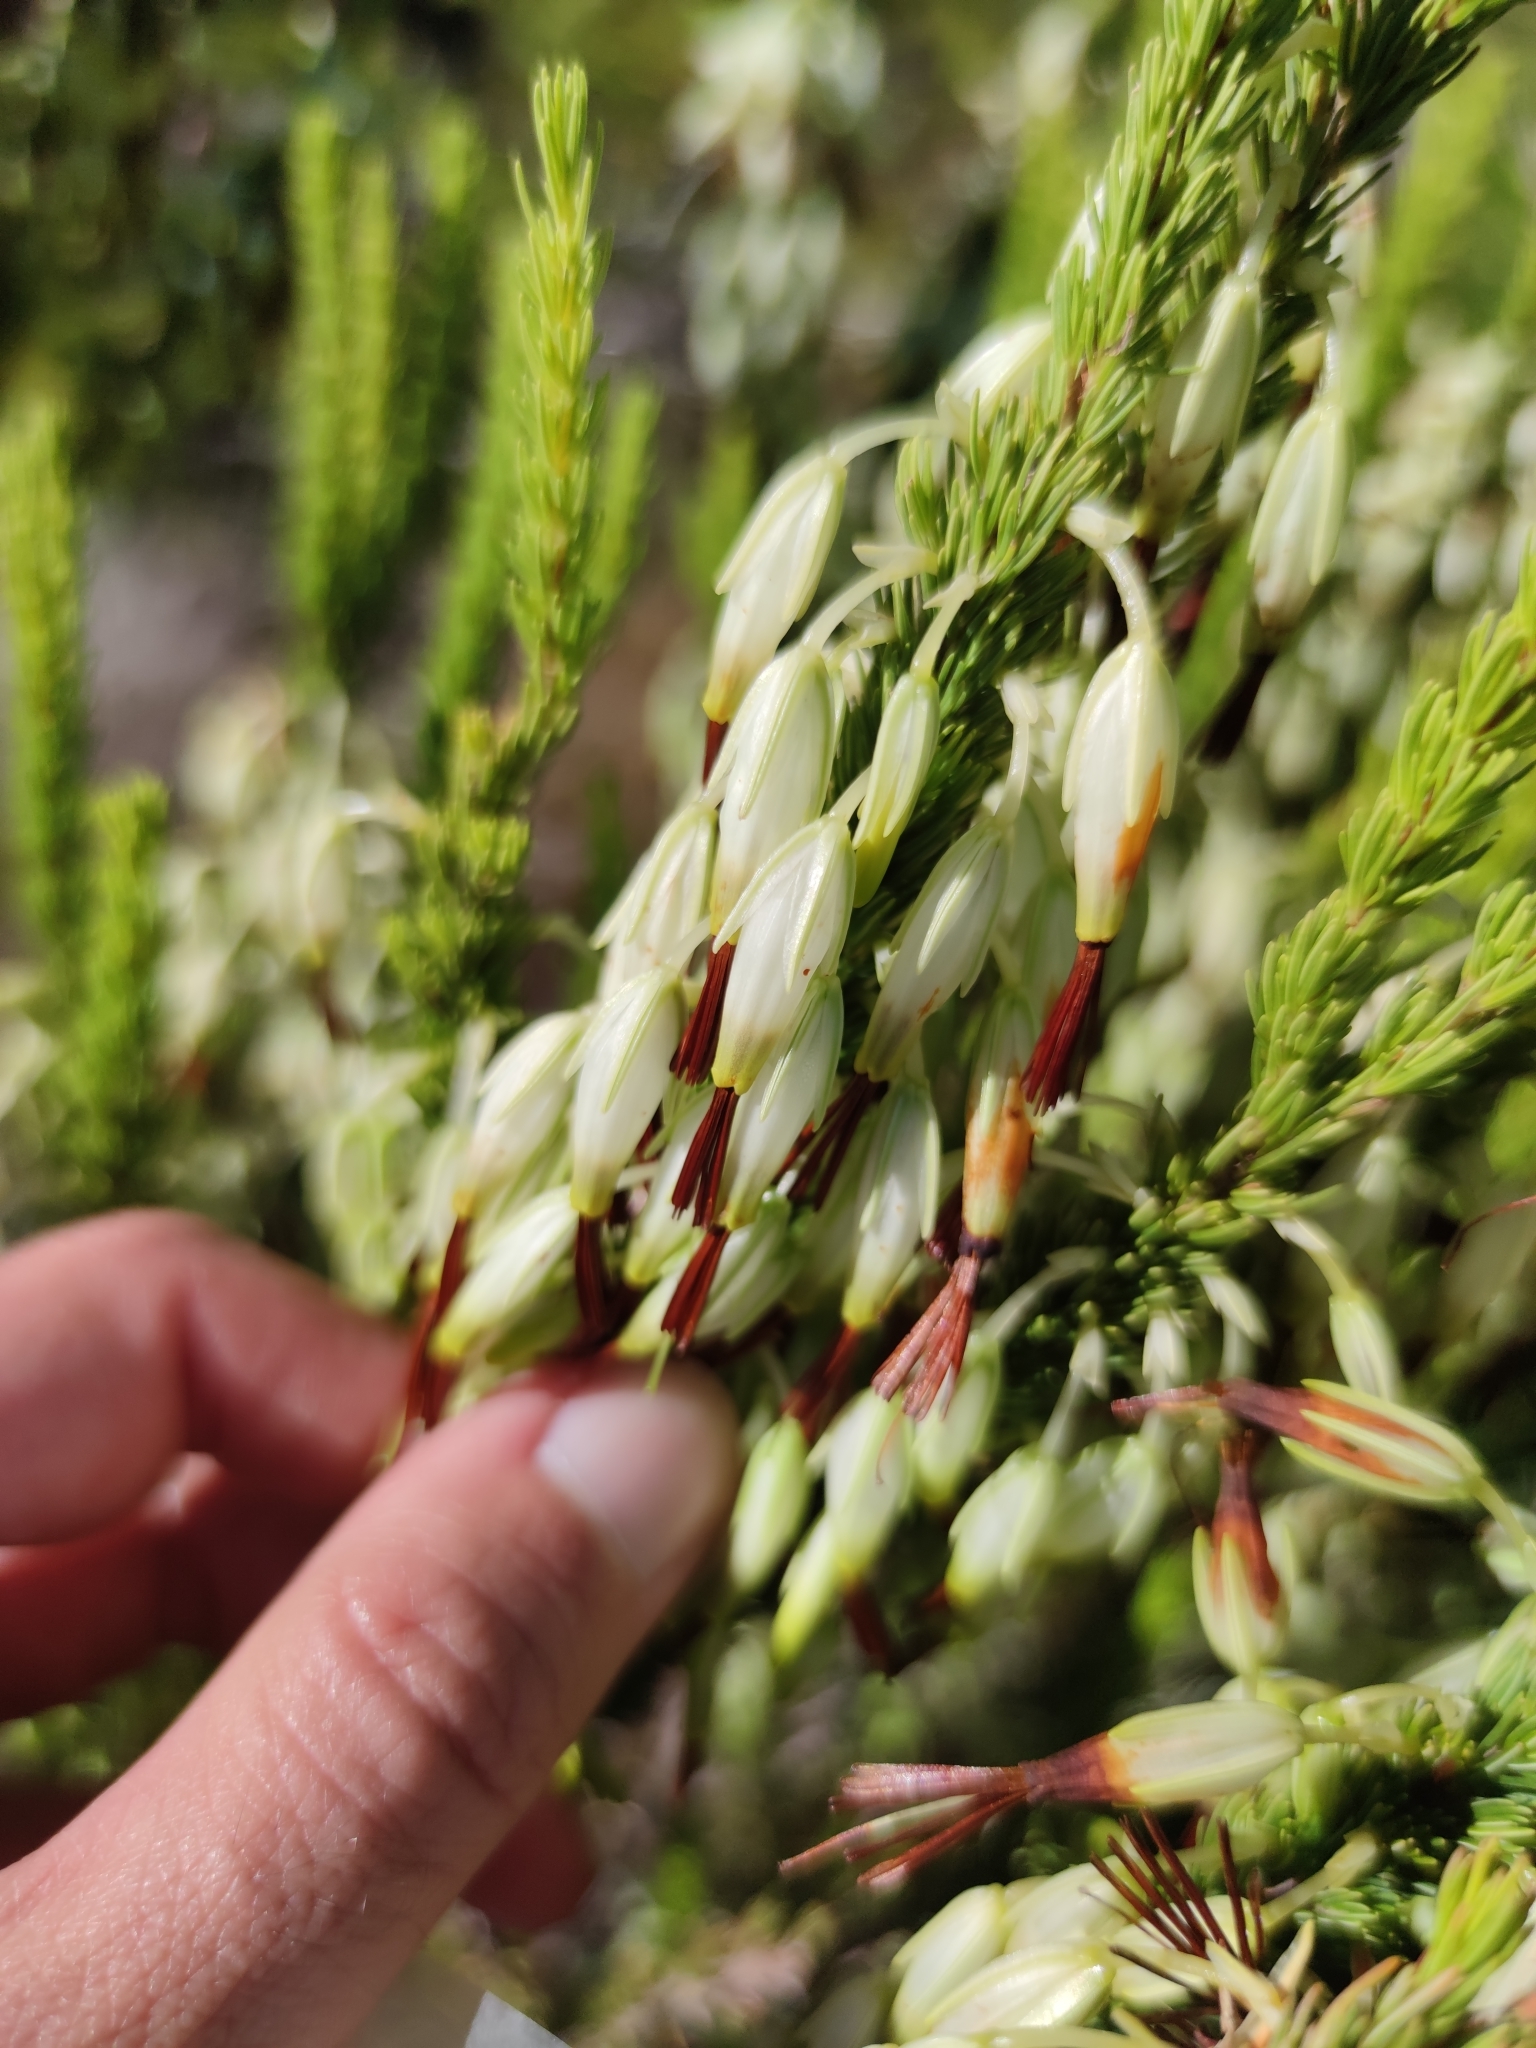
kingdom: Plantae
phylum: Tracheophyta
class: Magnoliopsida
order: Ericales
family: Ericaceae
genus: Erica
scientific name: Erica plukenetii
